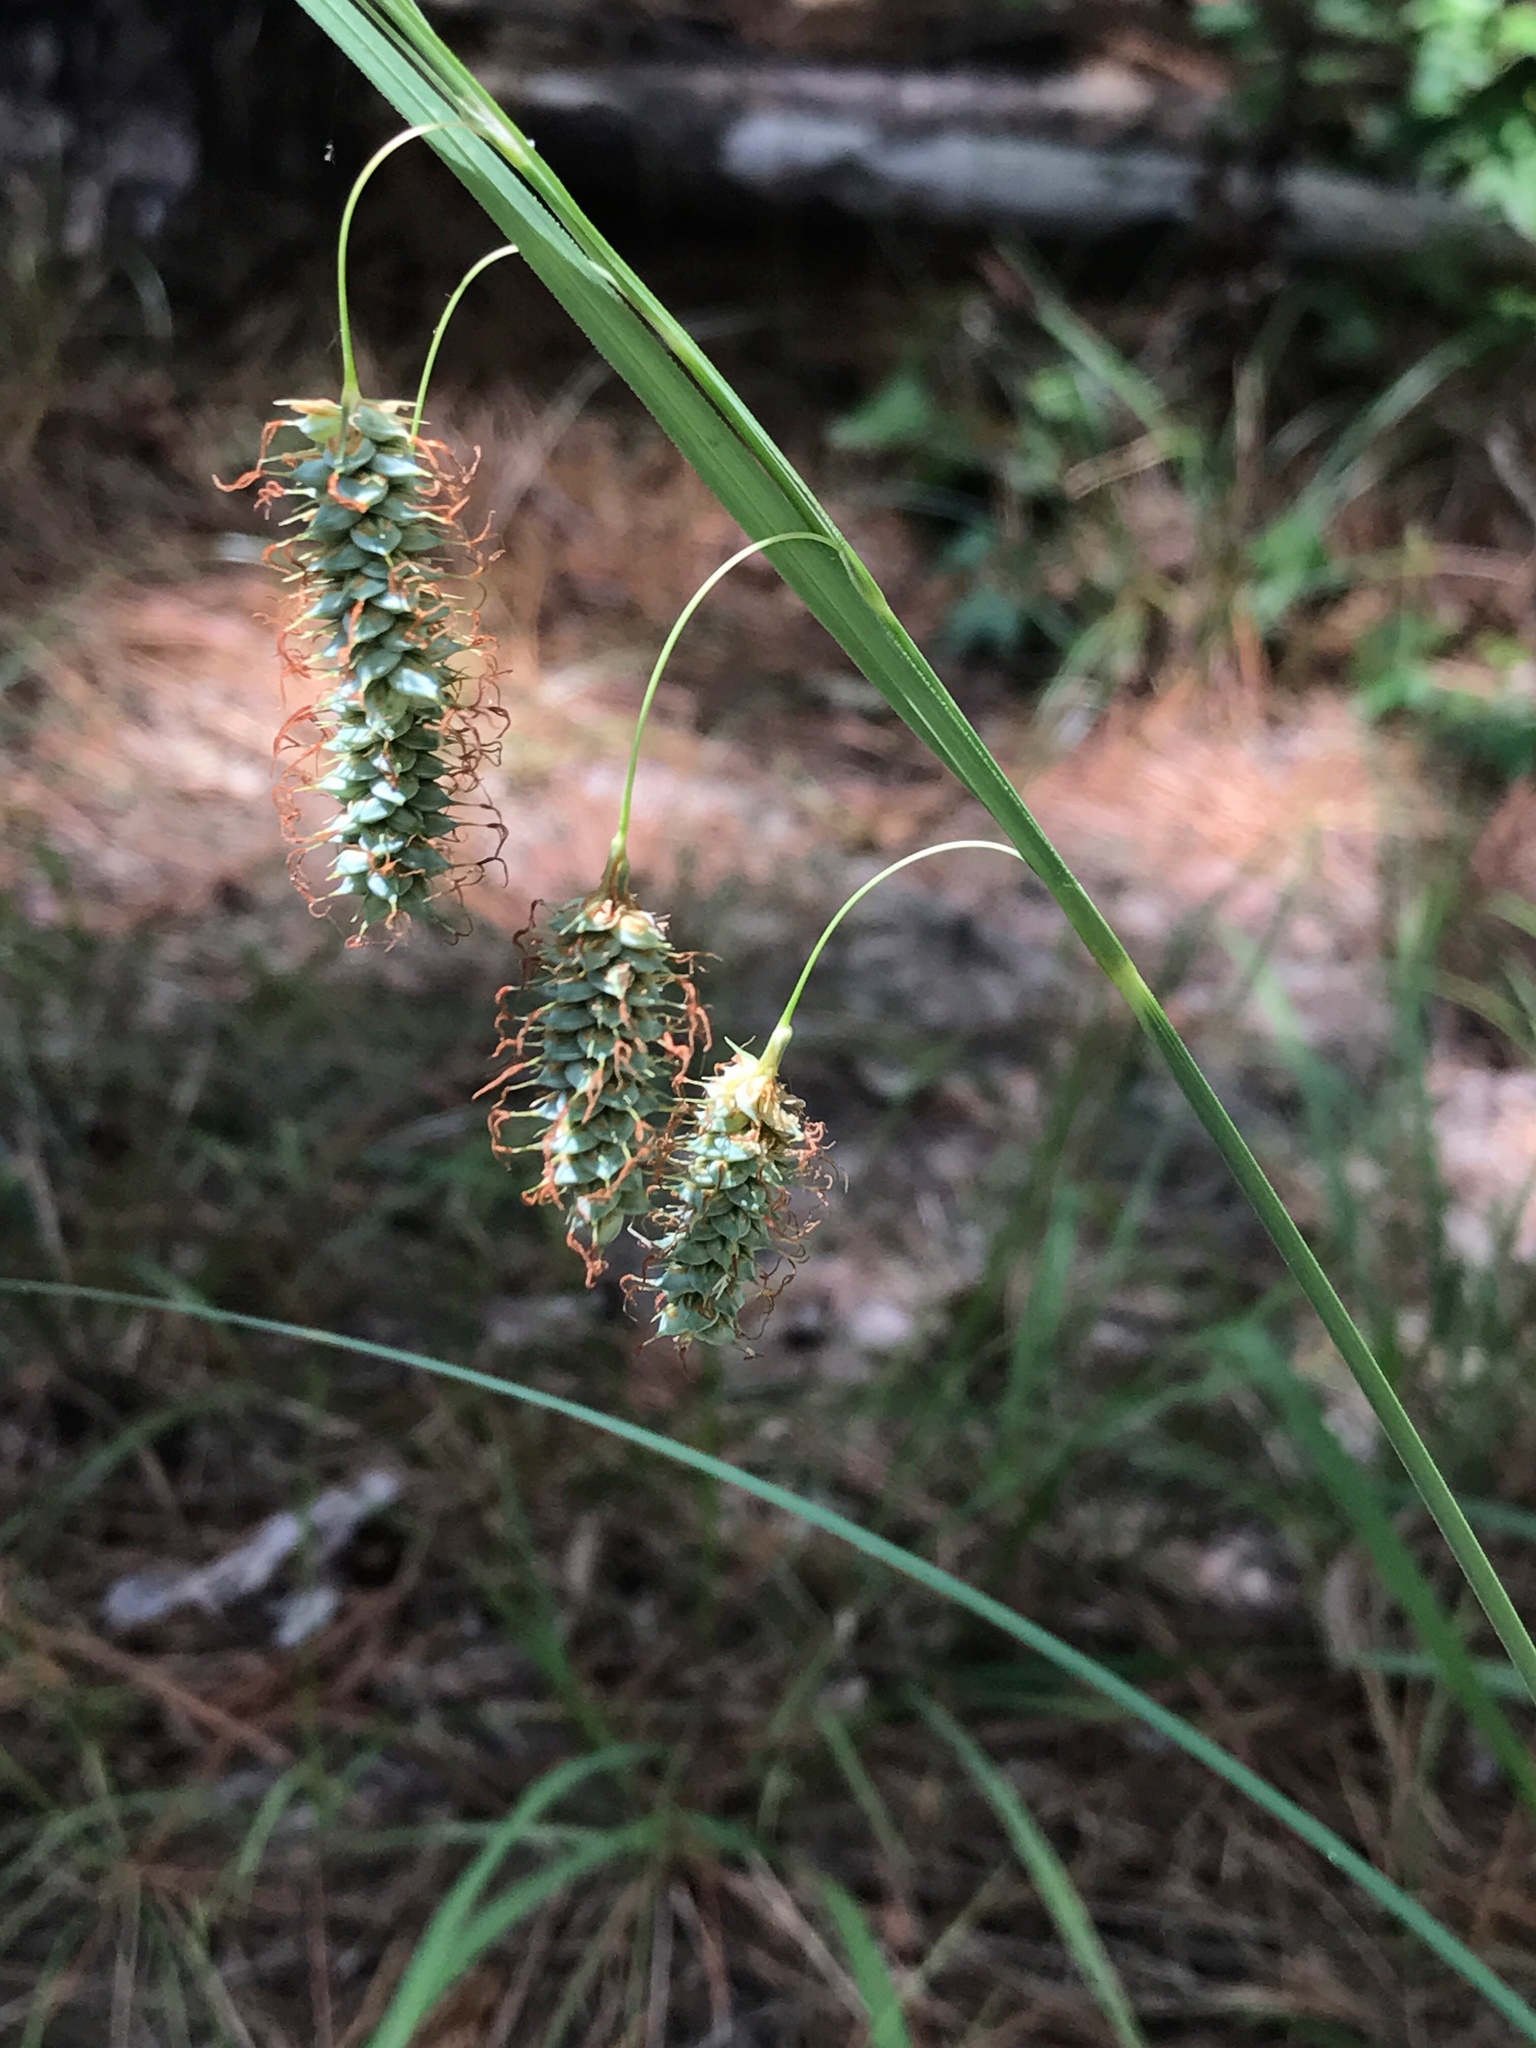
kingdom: Plantae
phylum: Tracheophyta
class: Liliopsida
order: Poales
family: Cyperaceae
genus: Carex
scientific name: Carex glaucescens
